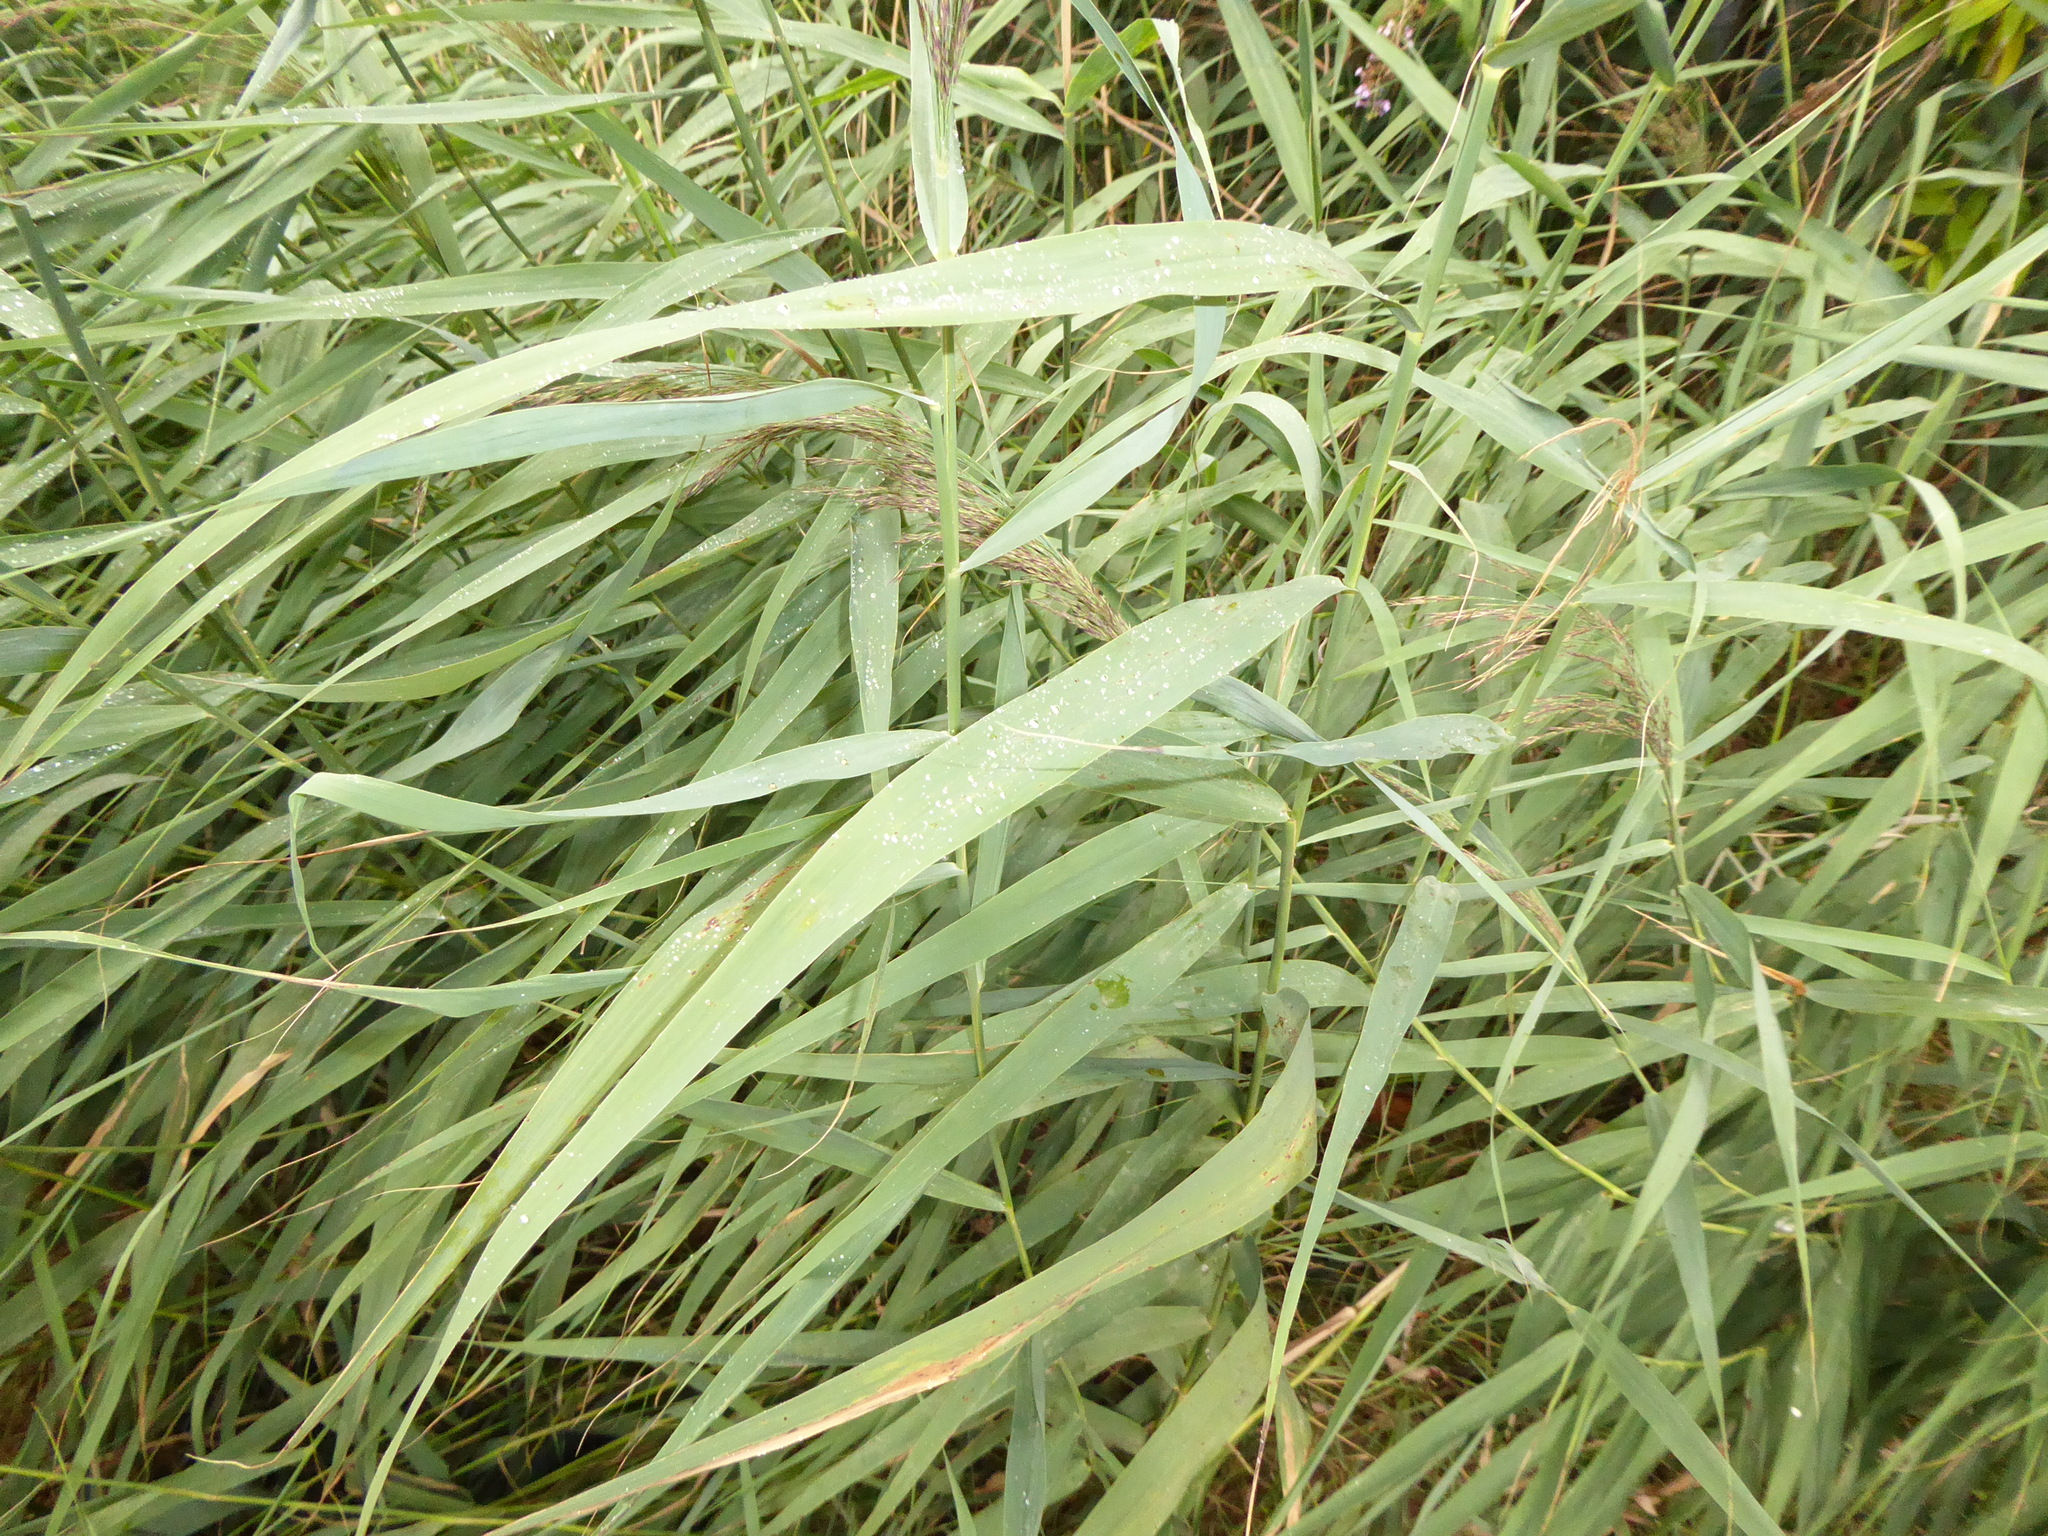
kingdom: Plantae
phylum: Tracheophyta
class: Liliopsida
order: Poales
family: Poaceae
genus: Phragmites
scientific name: Phragmites australis
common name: Common reed
